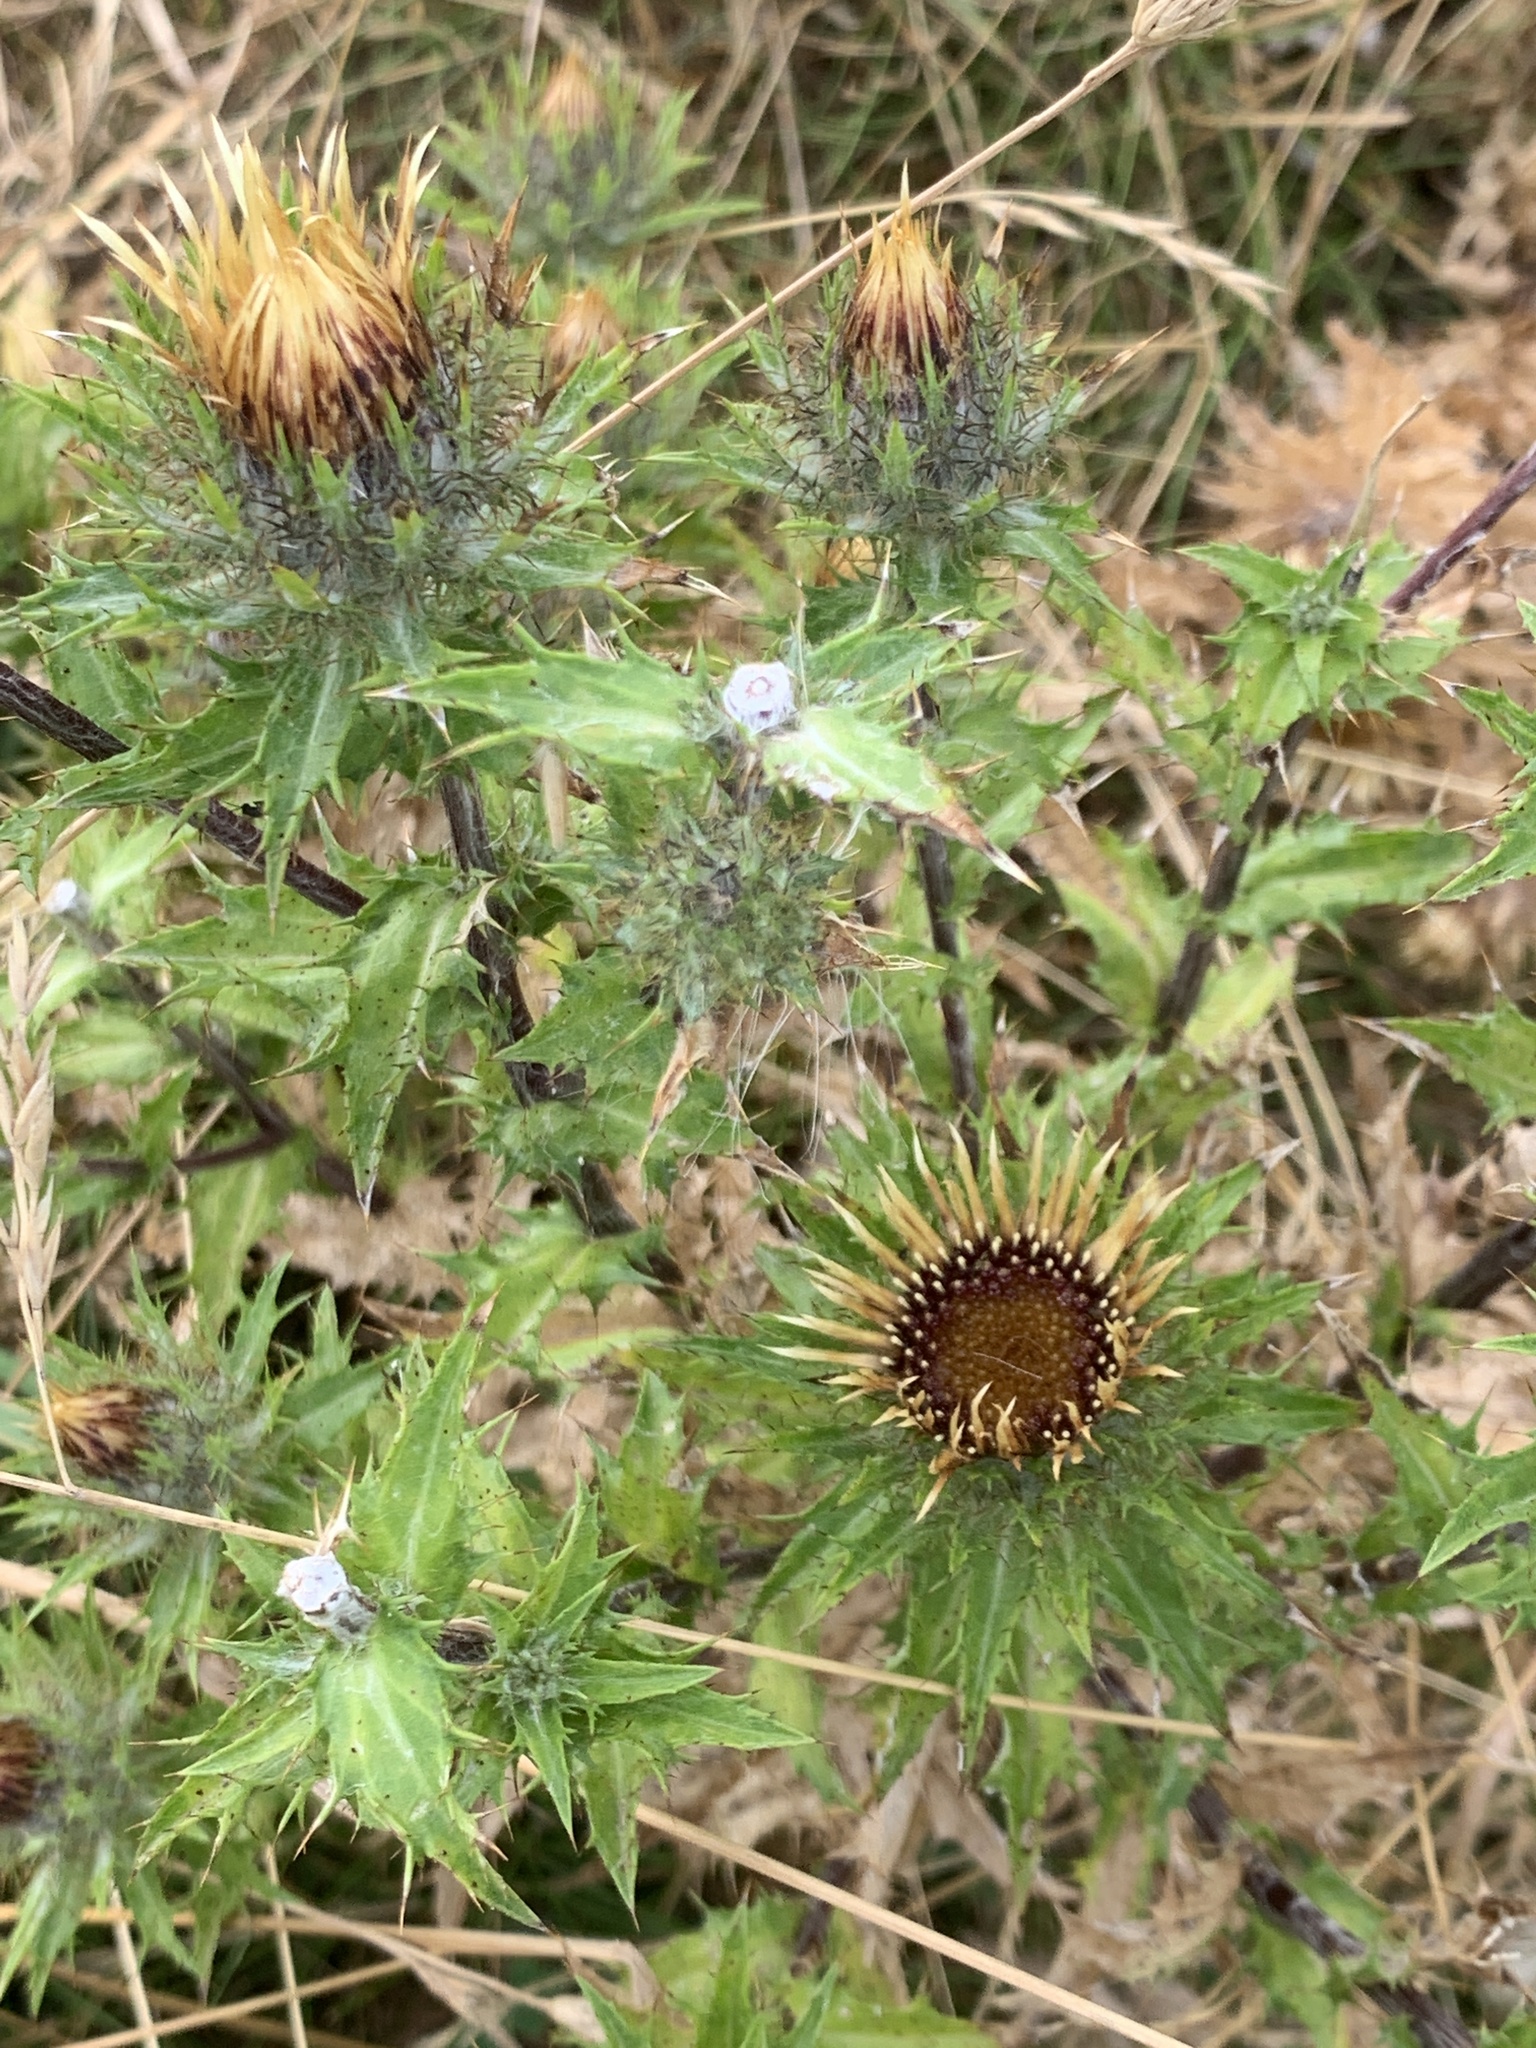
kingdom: Plantae
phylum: Tracheophyta
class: Magnoliopsida
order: Asterales
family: Asteraceae
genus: Carlina
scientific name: Carlina vulgaris
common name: Carline thistle
